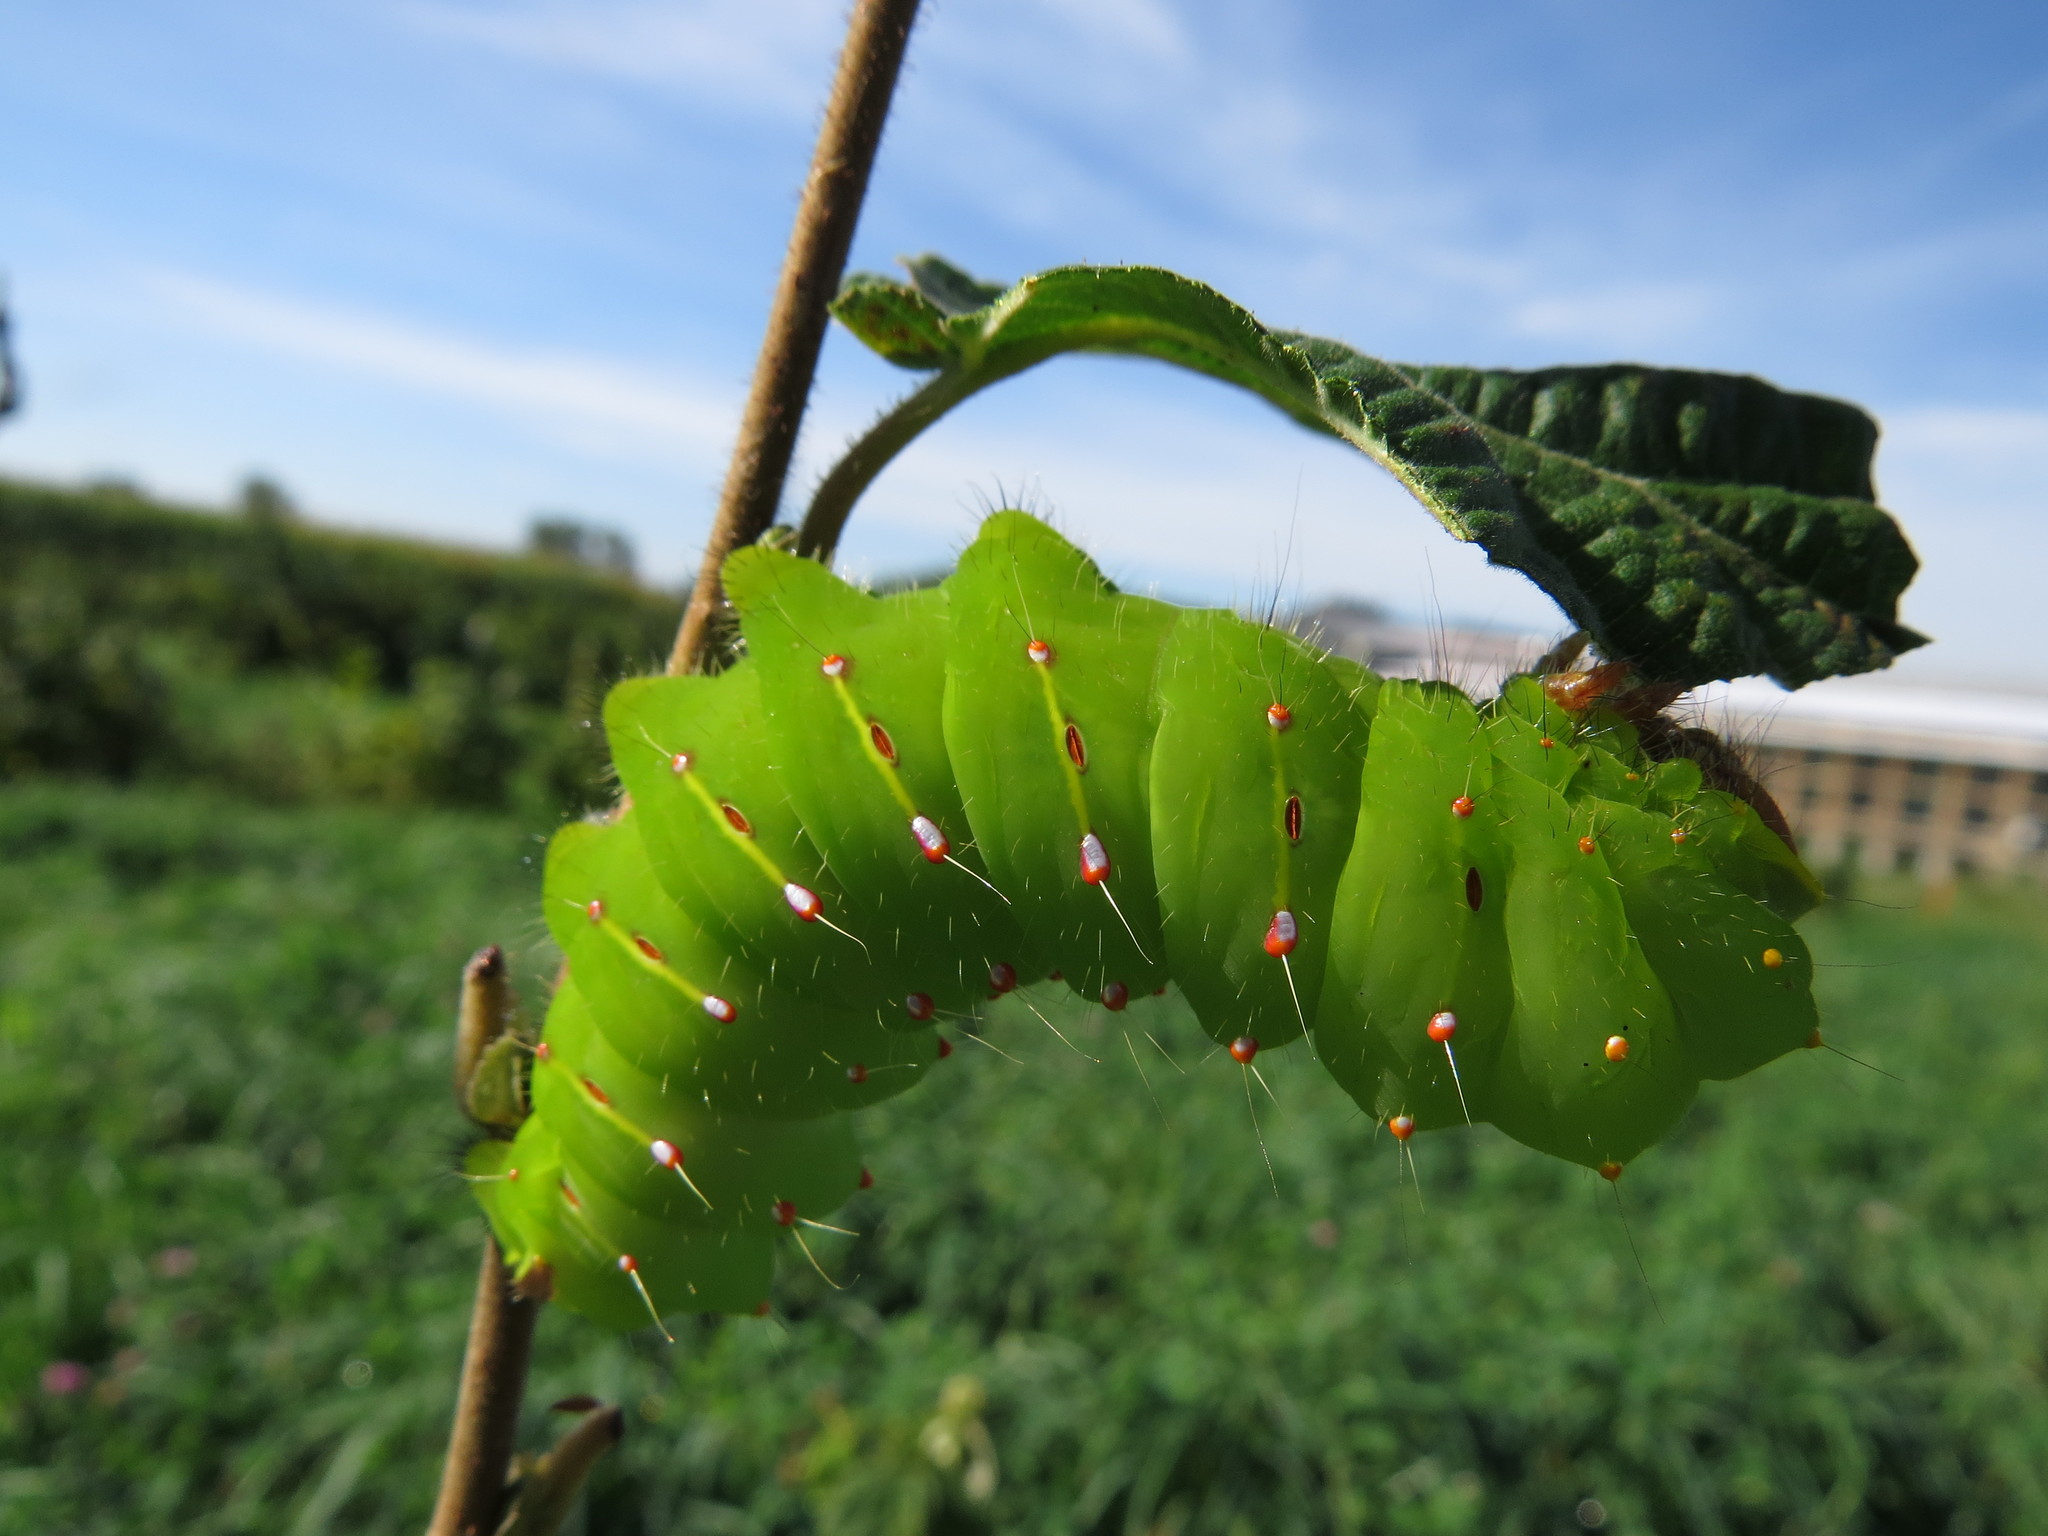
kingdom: Animalia
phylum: Arthropoda
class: Insecta
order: Lepidoptera
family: Saturniidae
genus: Antheraea
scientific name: Antheraea polyphemus
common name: Polyphemus moth
